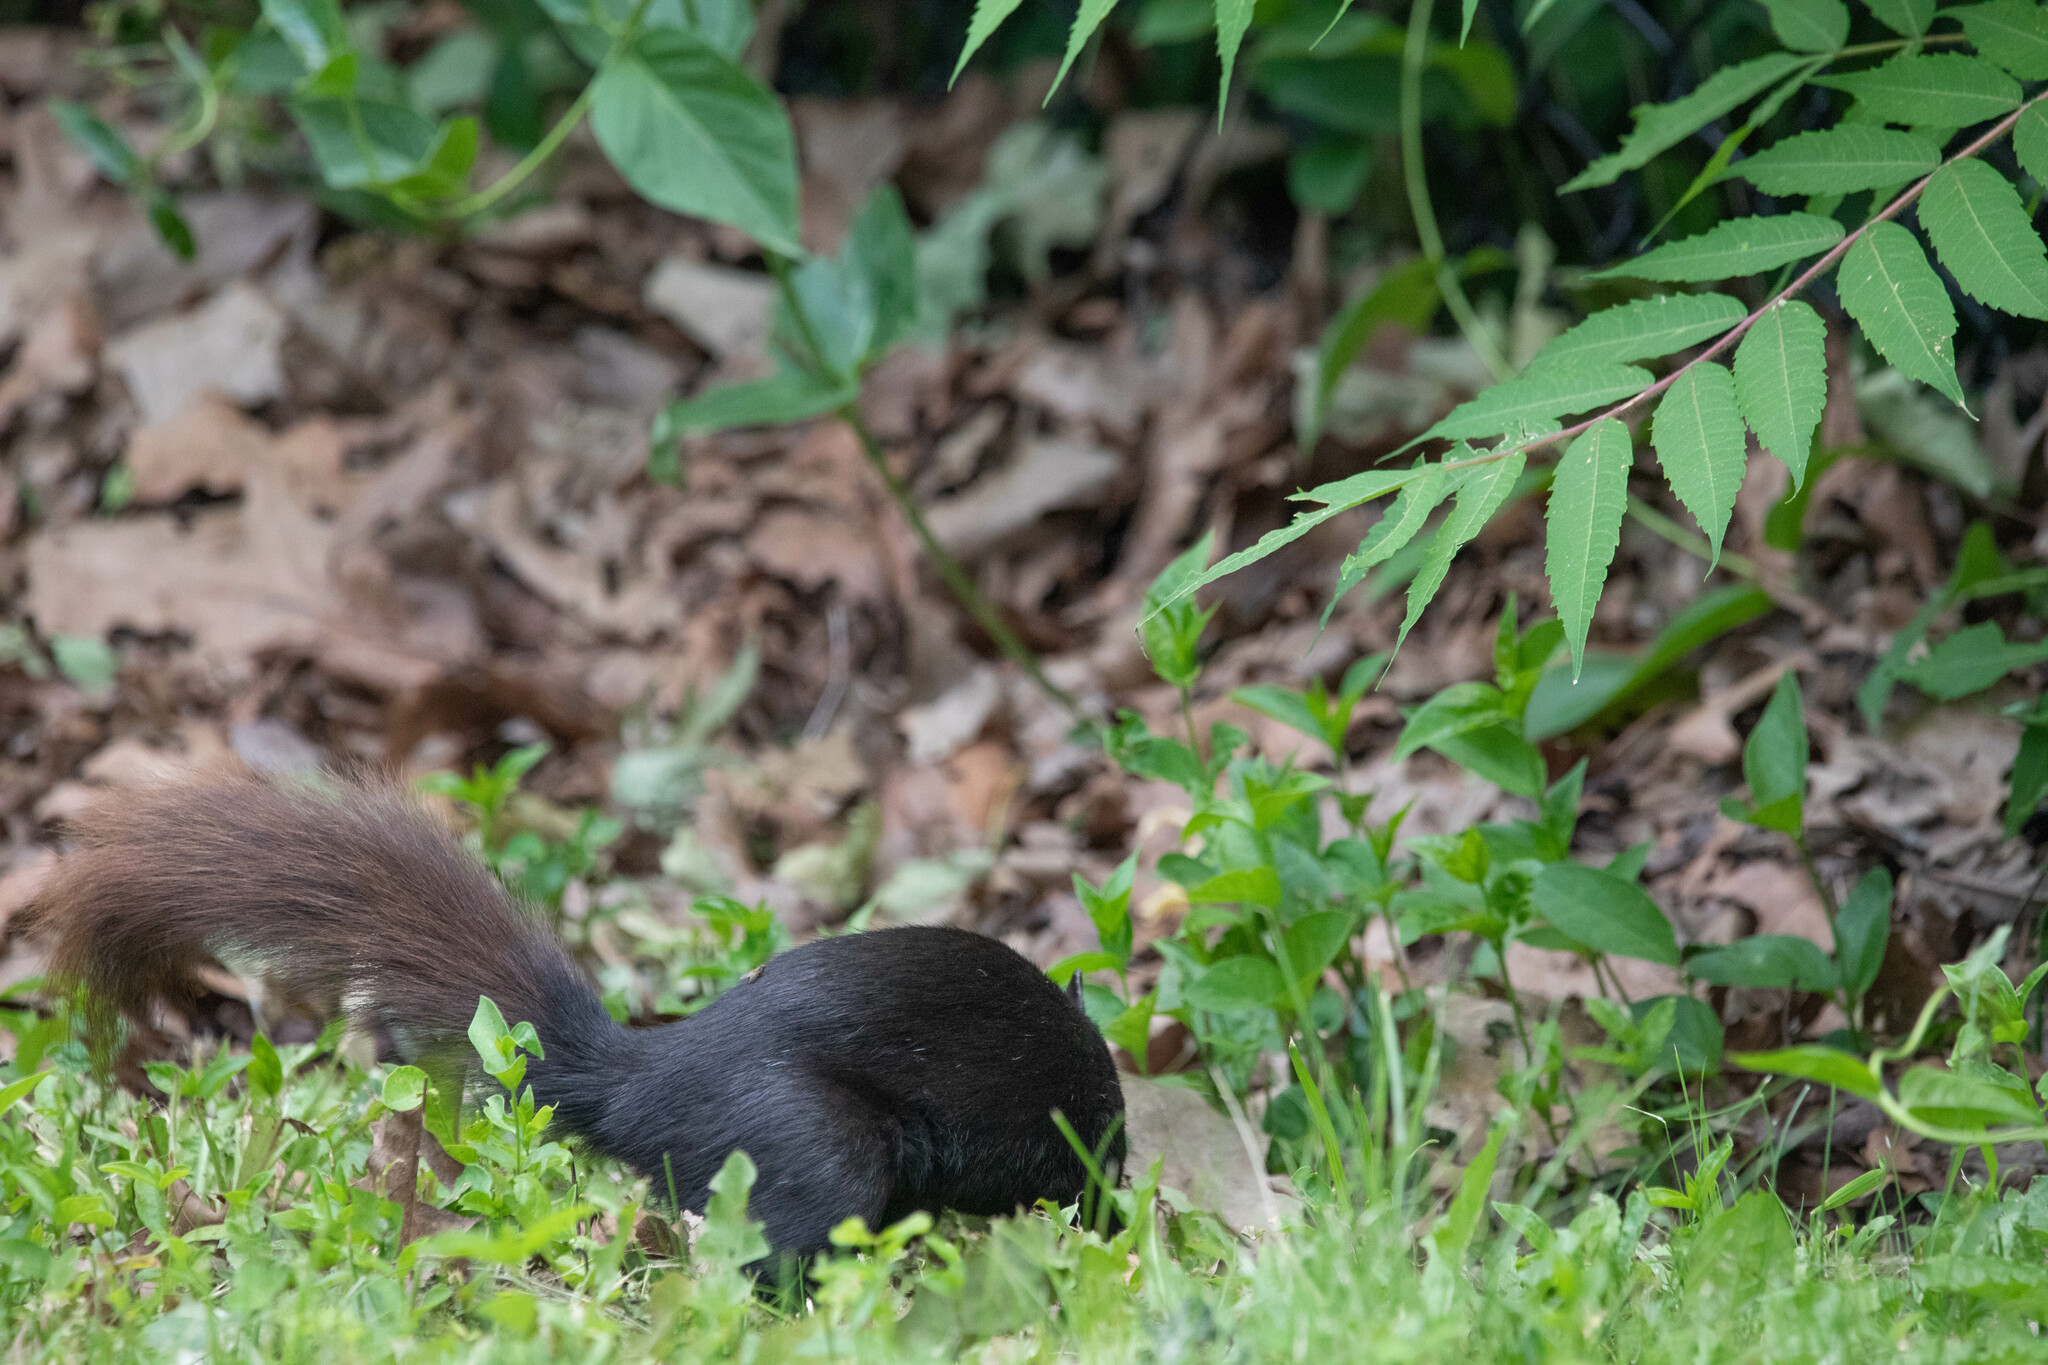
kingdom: Animalia
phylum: Chordata
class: Mammalia
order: Rodentia
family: Sciuridae
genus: Sciurus
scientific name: Sciurus carolinensis
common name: Eastern gray squirrel
